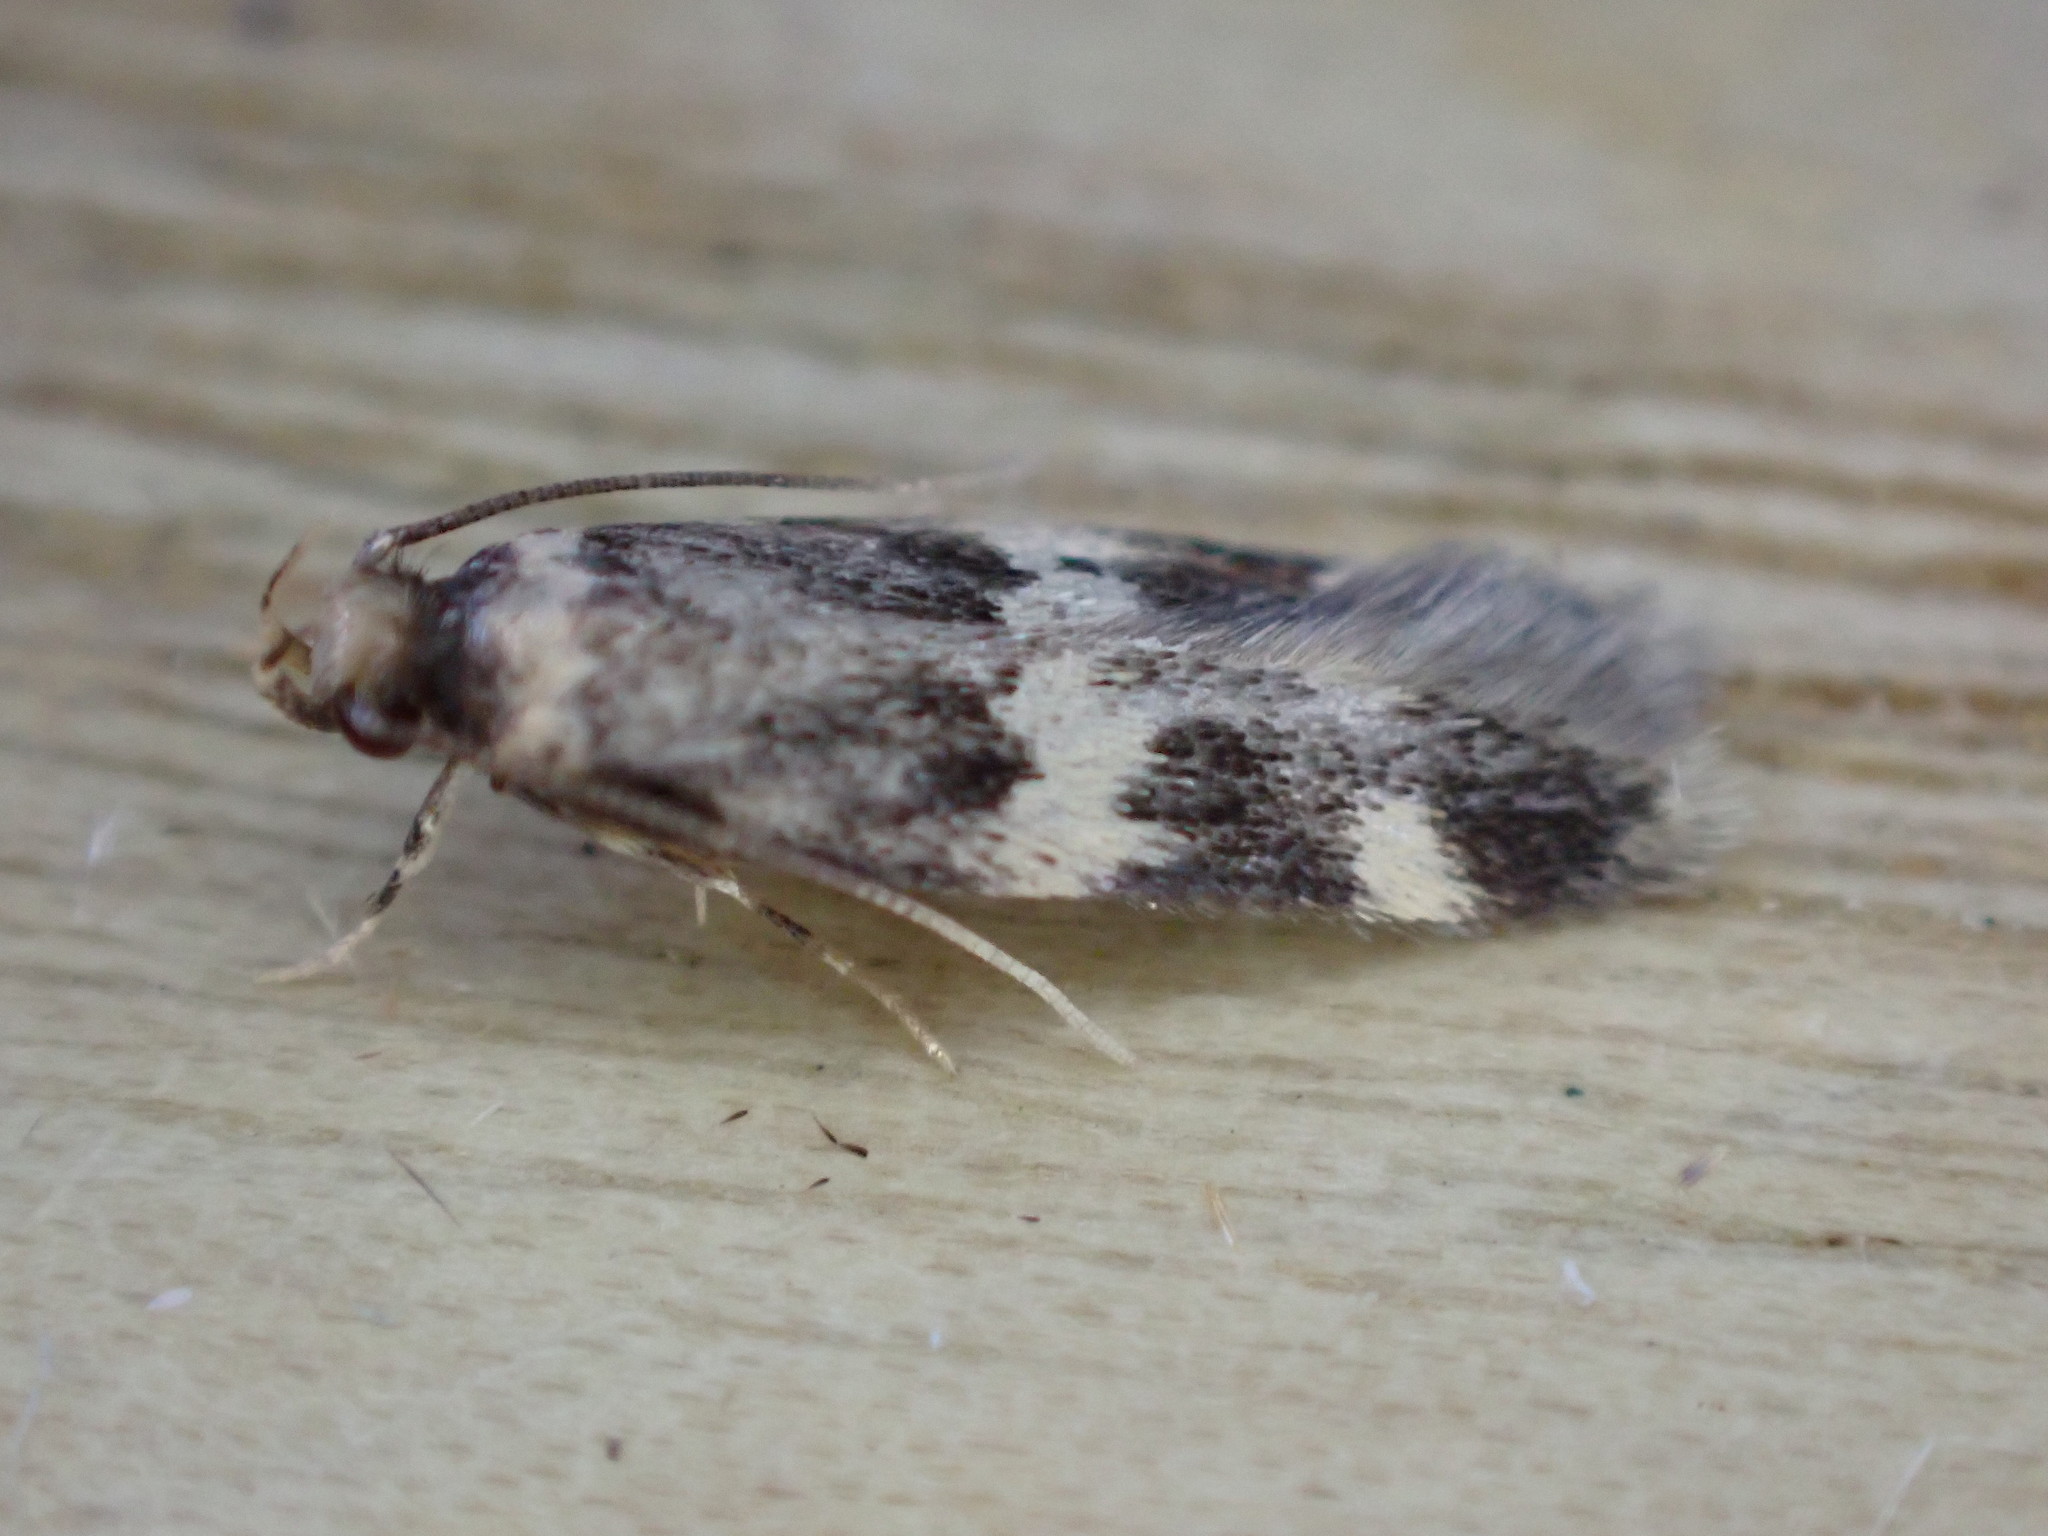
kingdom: Animalia
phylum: Arthropoda
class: Insecta
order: Lepidoptera
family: Autostichidae
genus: Oegoconia
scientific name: Oegoconia quadripuncta
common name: Four-spotted obscure
